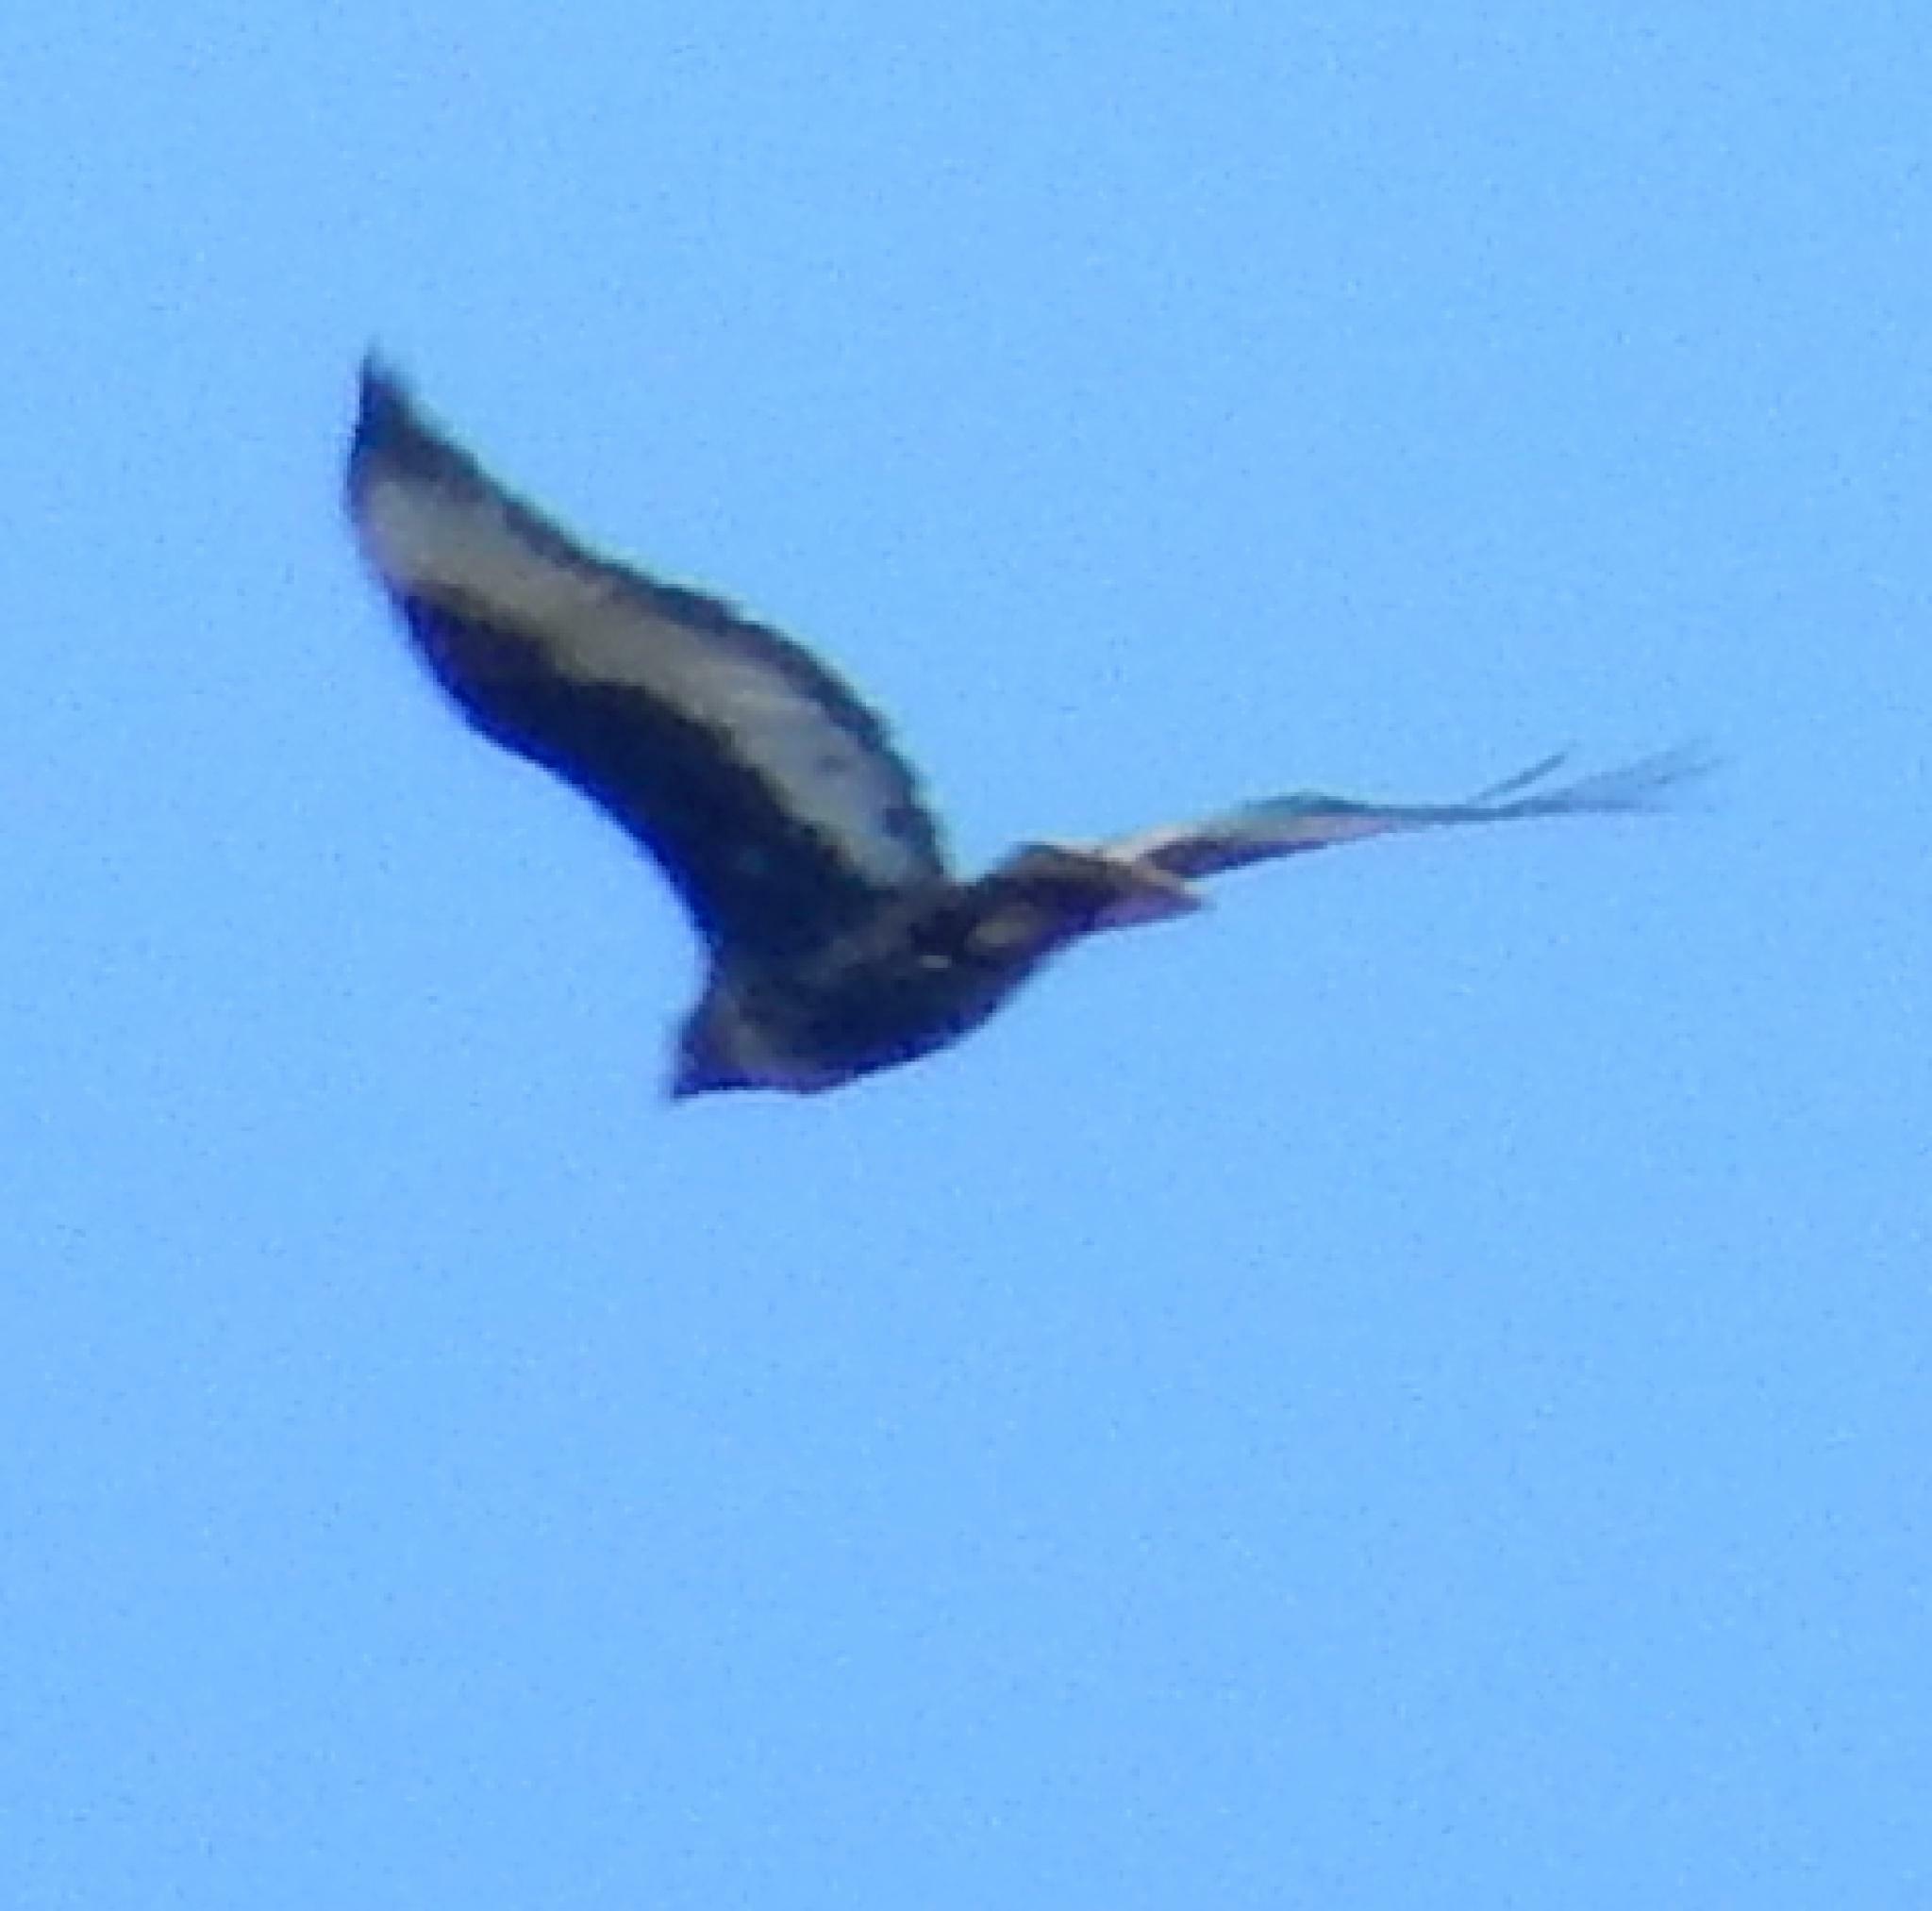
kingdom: Animalia
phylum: Chordata
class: Aves
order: Accipitriformes
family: Accipitridae
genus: Buteo
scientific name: Buteo rufofuscus
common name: Jackal buzzard
